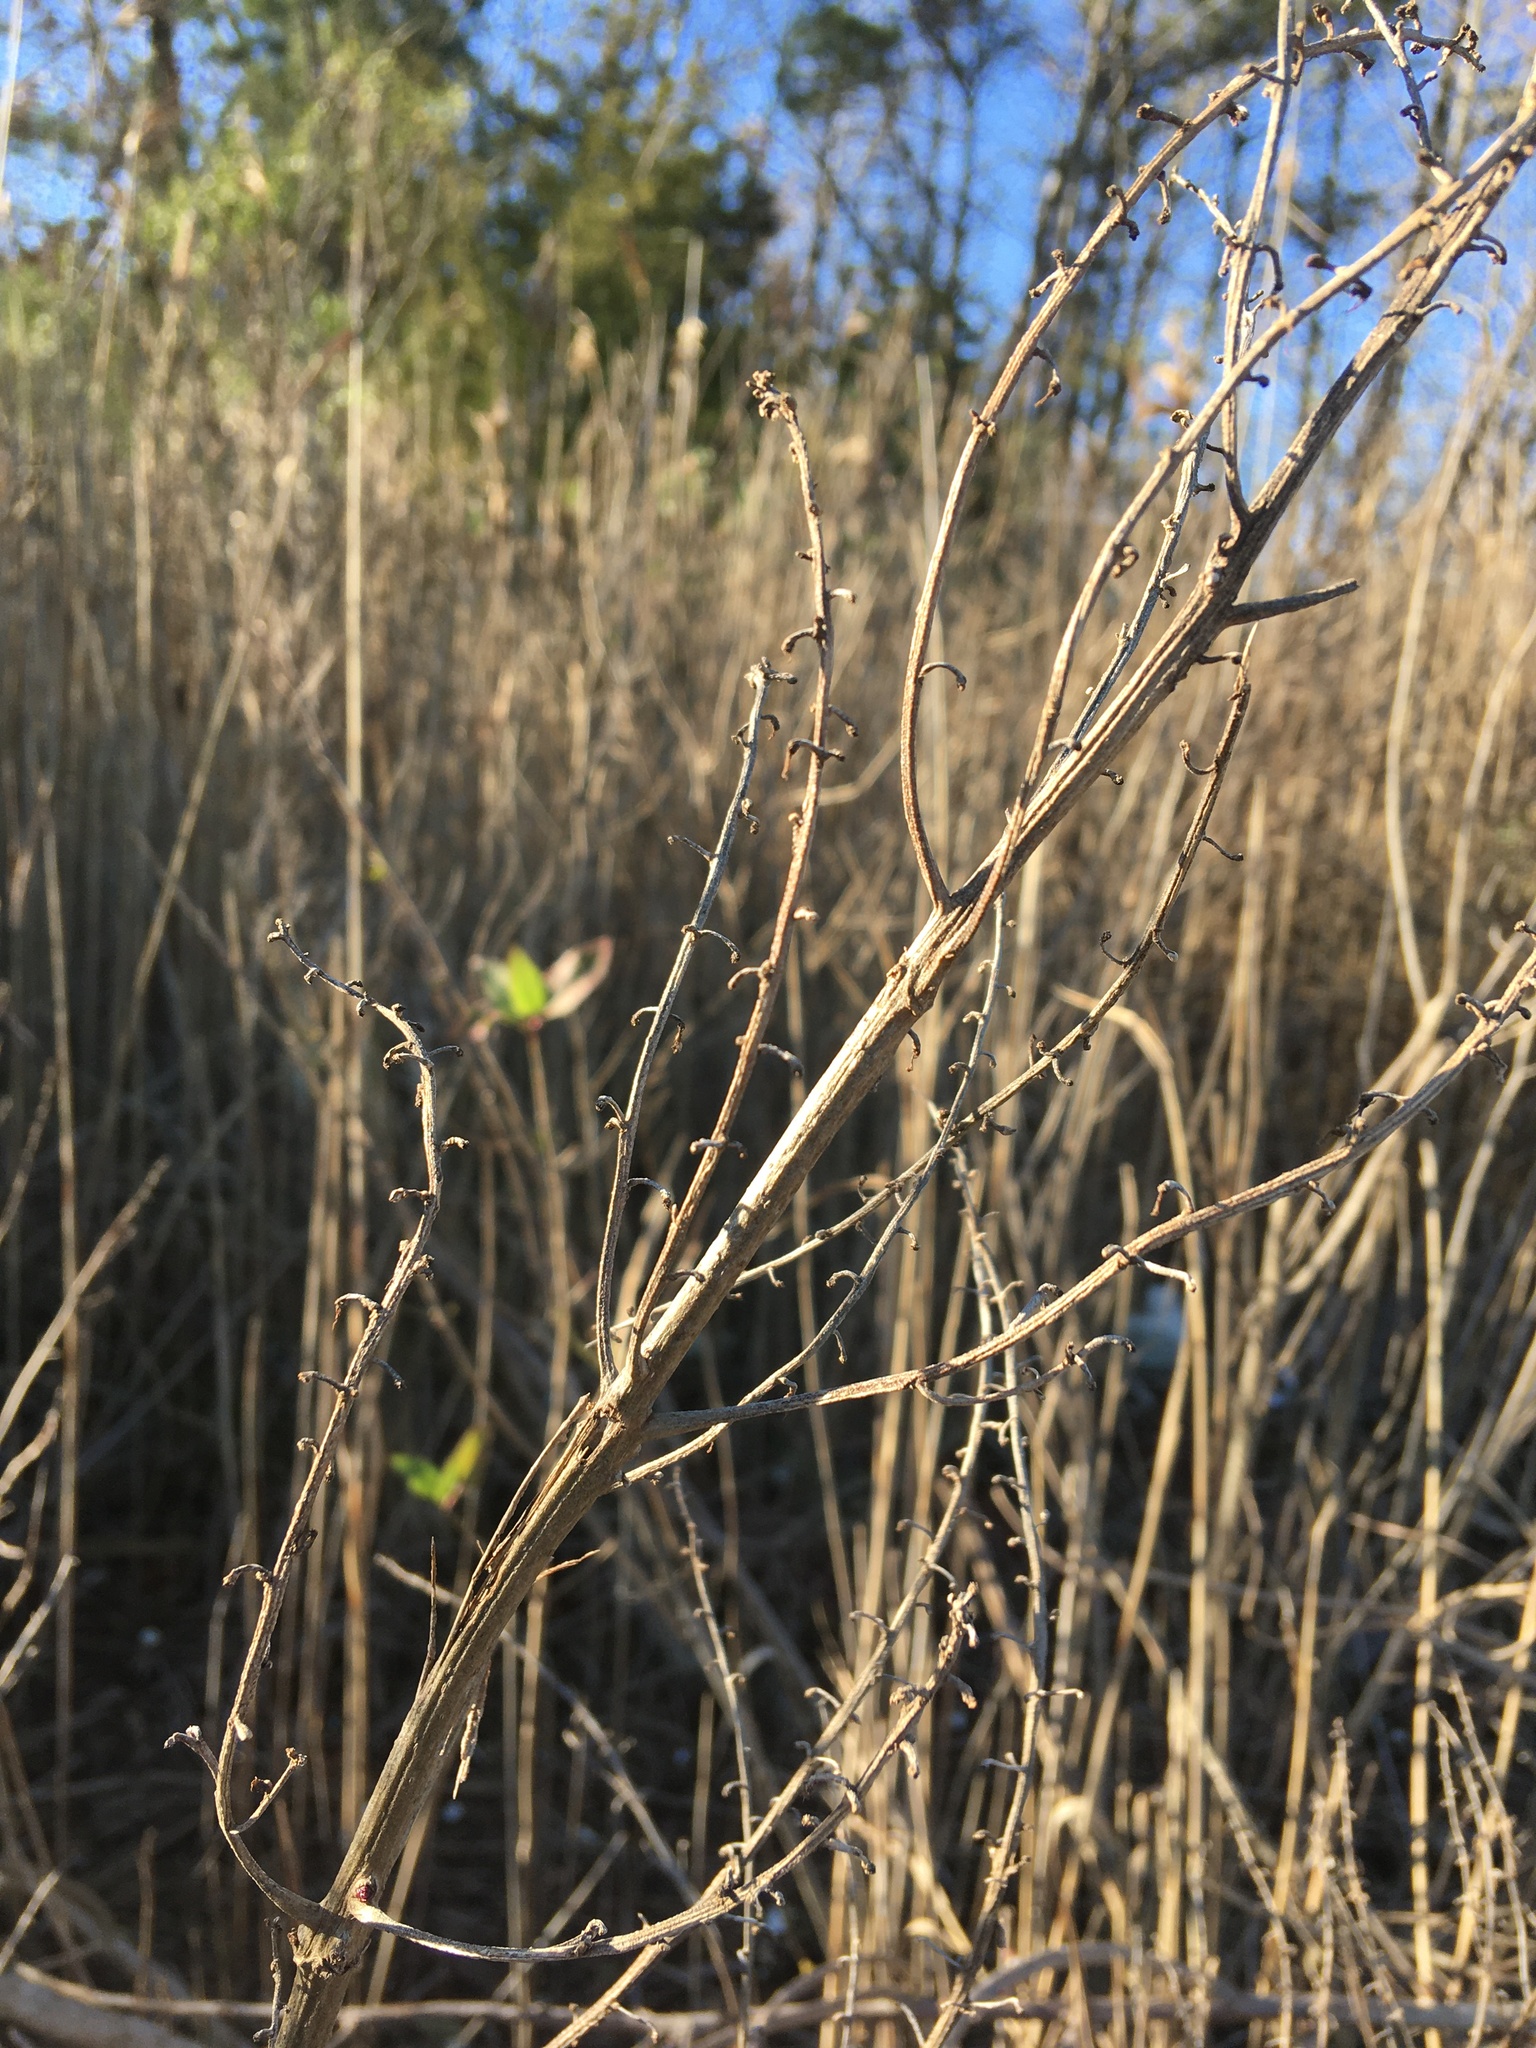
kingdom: Plantae
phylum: Tracheophyta
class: Magnoliopsida
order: Asterales
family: Asteraceae
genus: Iva
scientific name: Iva frutescens
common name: Big-leaved marsh-elder
